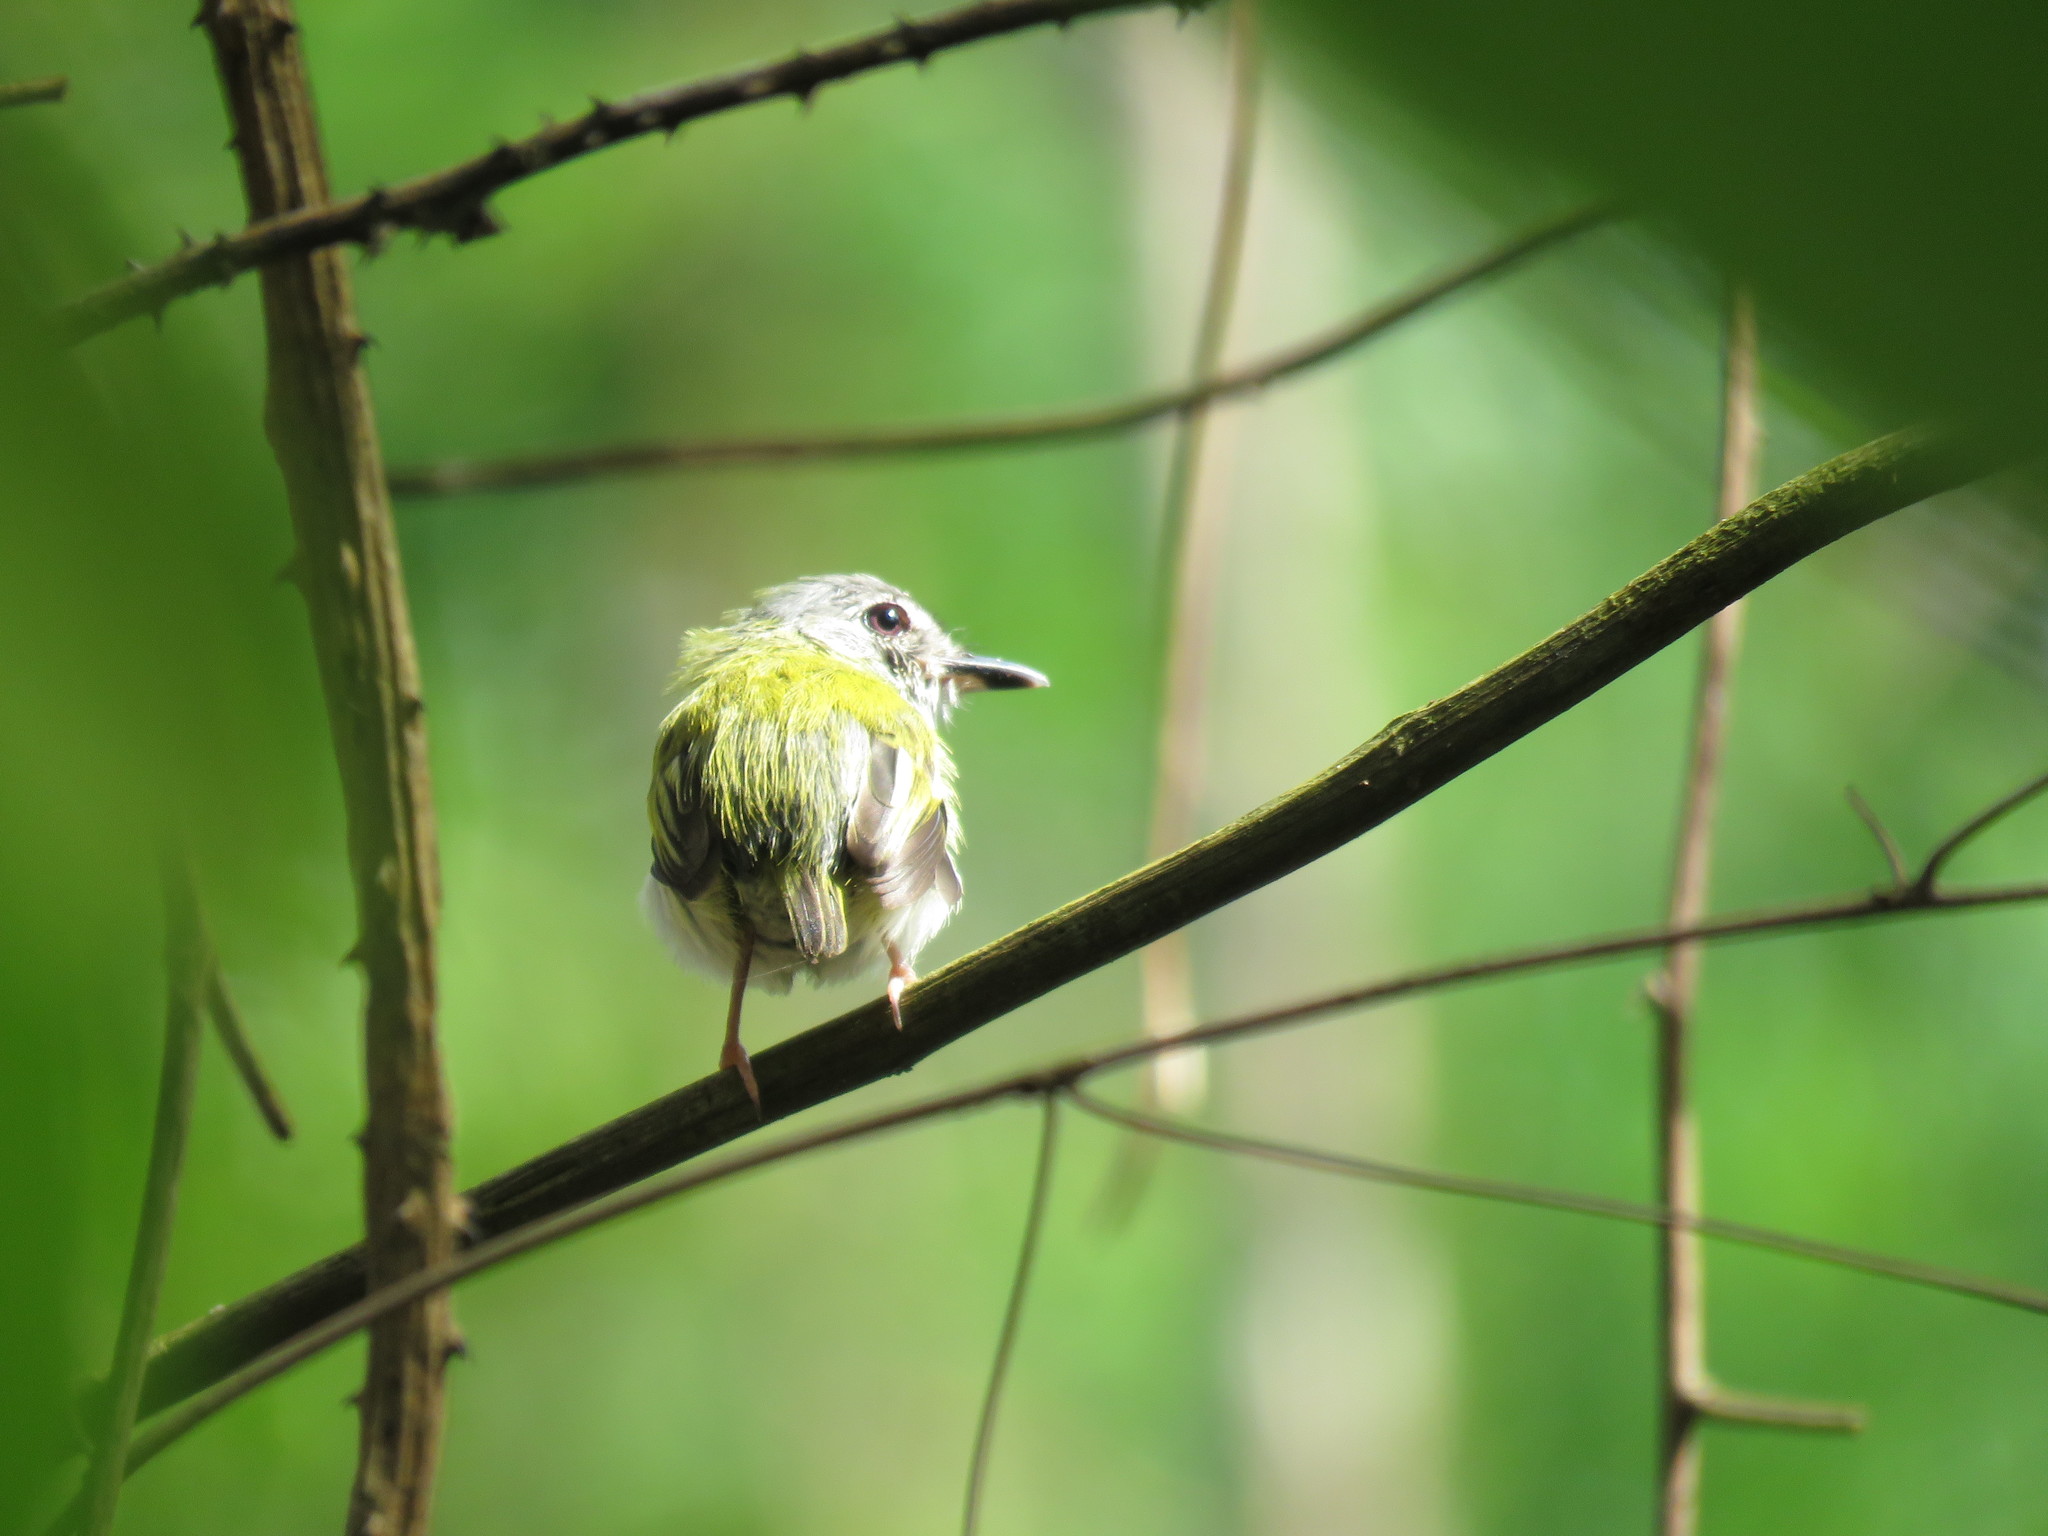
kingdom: Animalia
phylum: Chordata
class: Aves
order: Passeriformes
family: Tyrannidae
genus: Myiornis
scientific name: Myiornis ecaudatus
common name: Short-tailed pygmy tyrant
